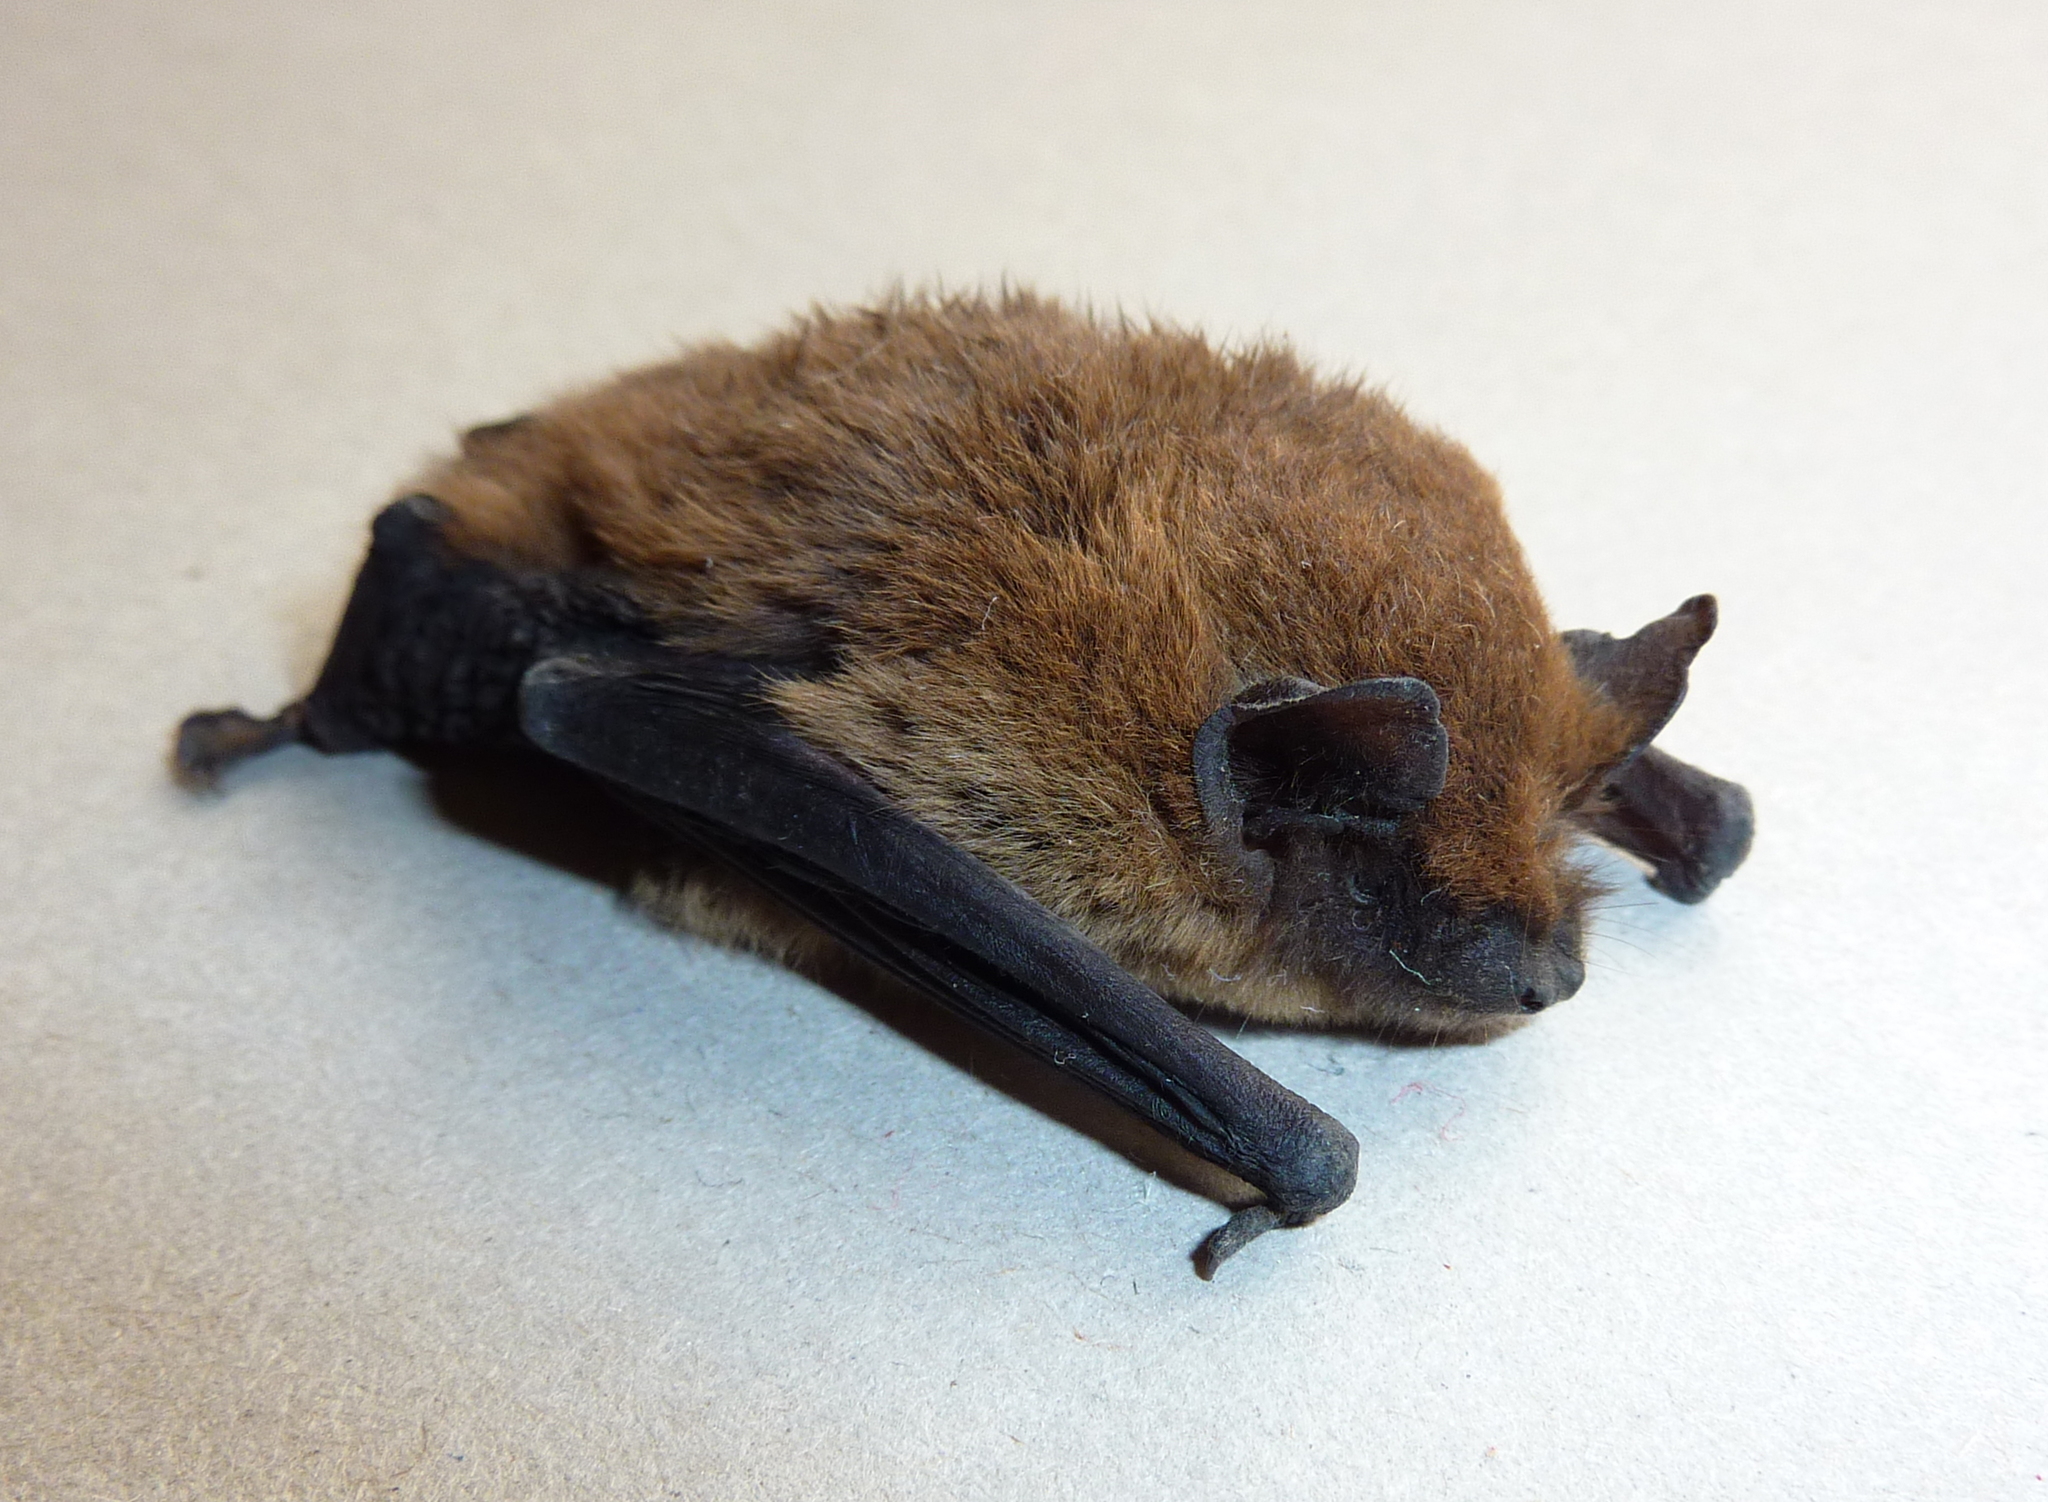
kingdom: Animalia
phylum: Chordata
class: Mammalia
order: Chiroptera
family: Vespertilionidae
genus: Pipistrellus
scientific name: Pipistrellus kuhlii
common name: Kuhl's pipistrelle
